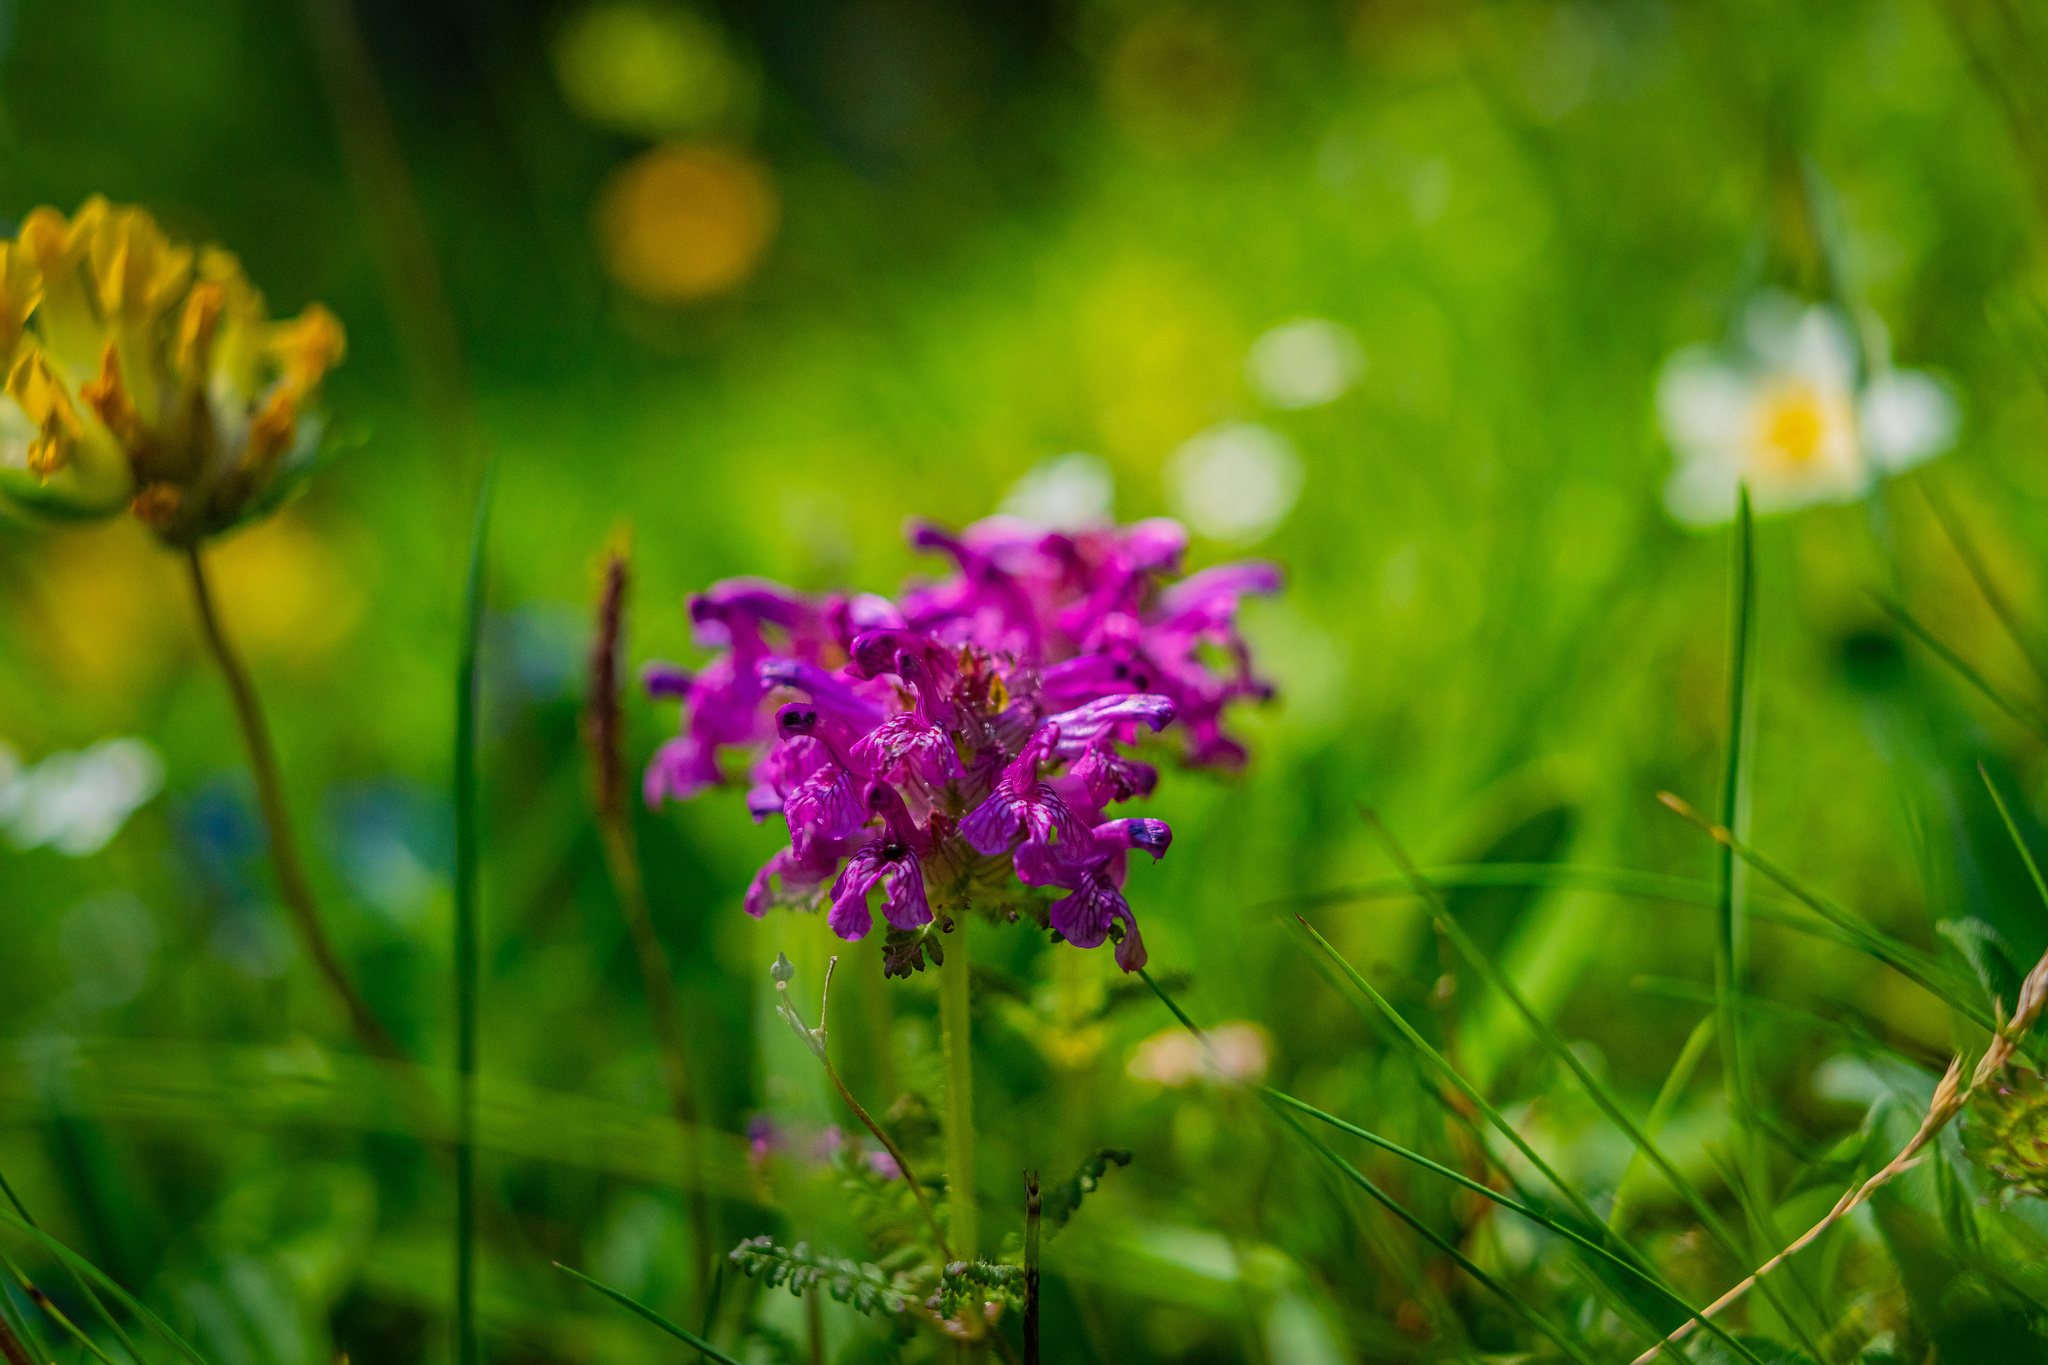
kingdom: Plantae
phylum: Tracheophyta
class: Magnoliopsida
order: Lamiales
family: Orobanchaceae
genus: Pedicularis
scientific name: Pedicularis verticillata
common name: Whorled lousewort
